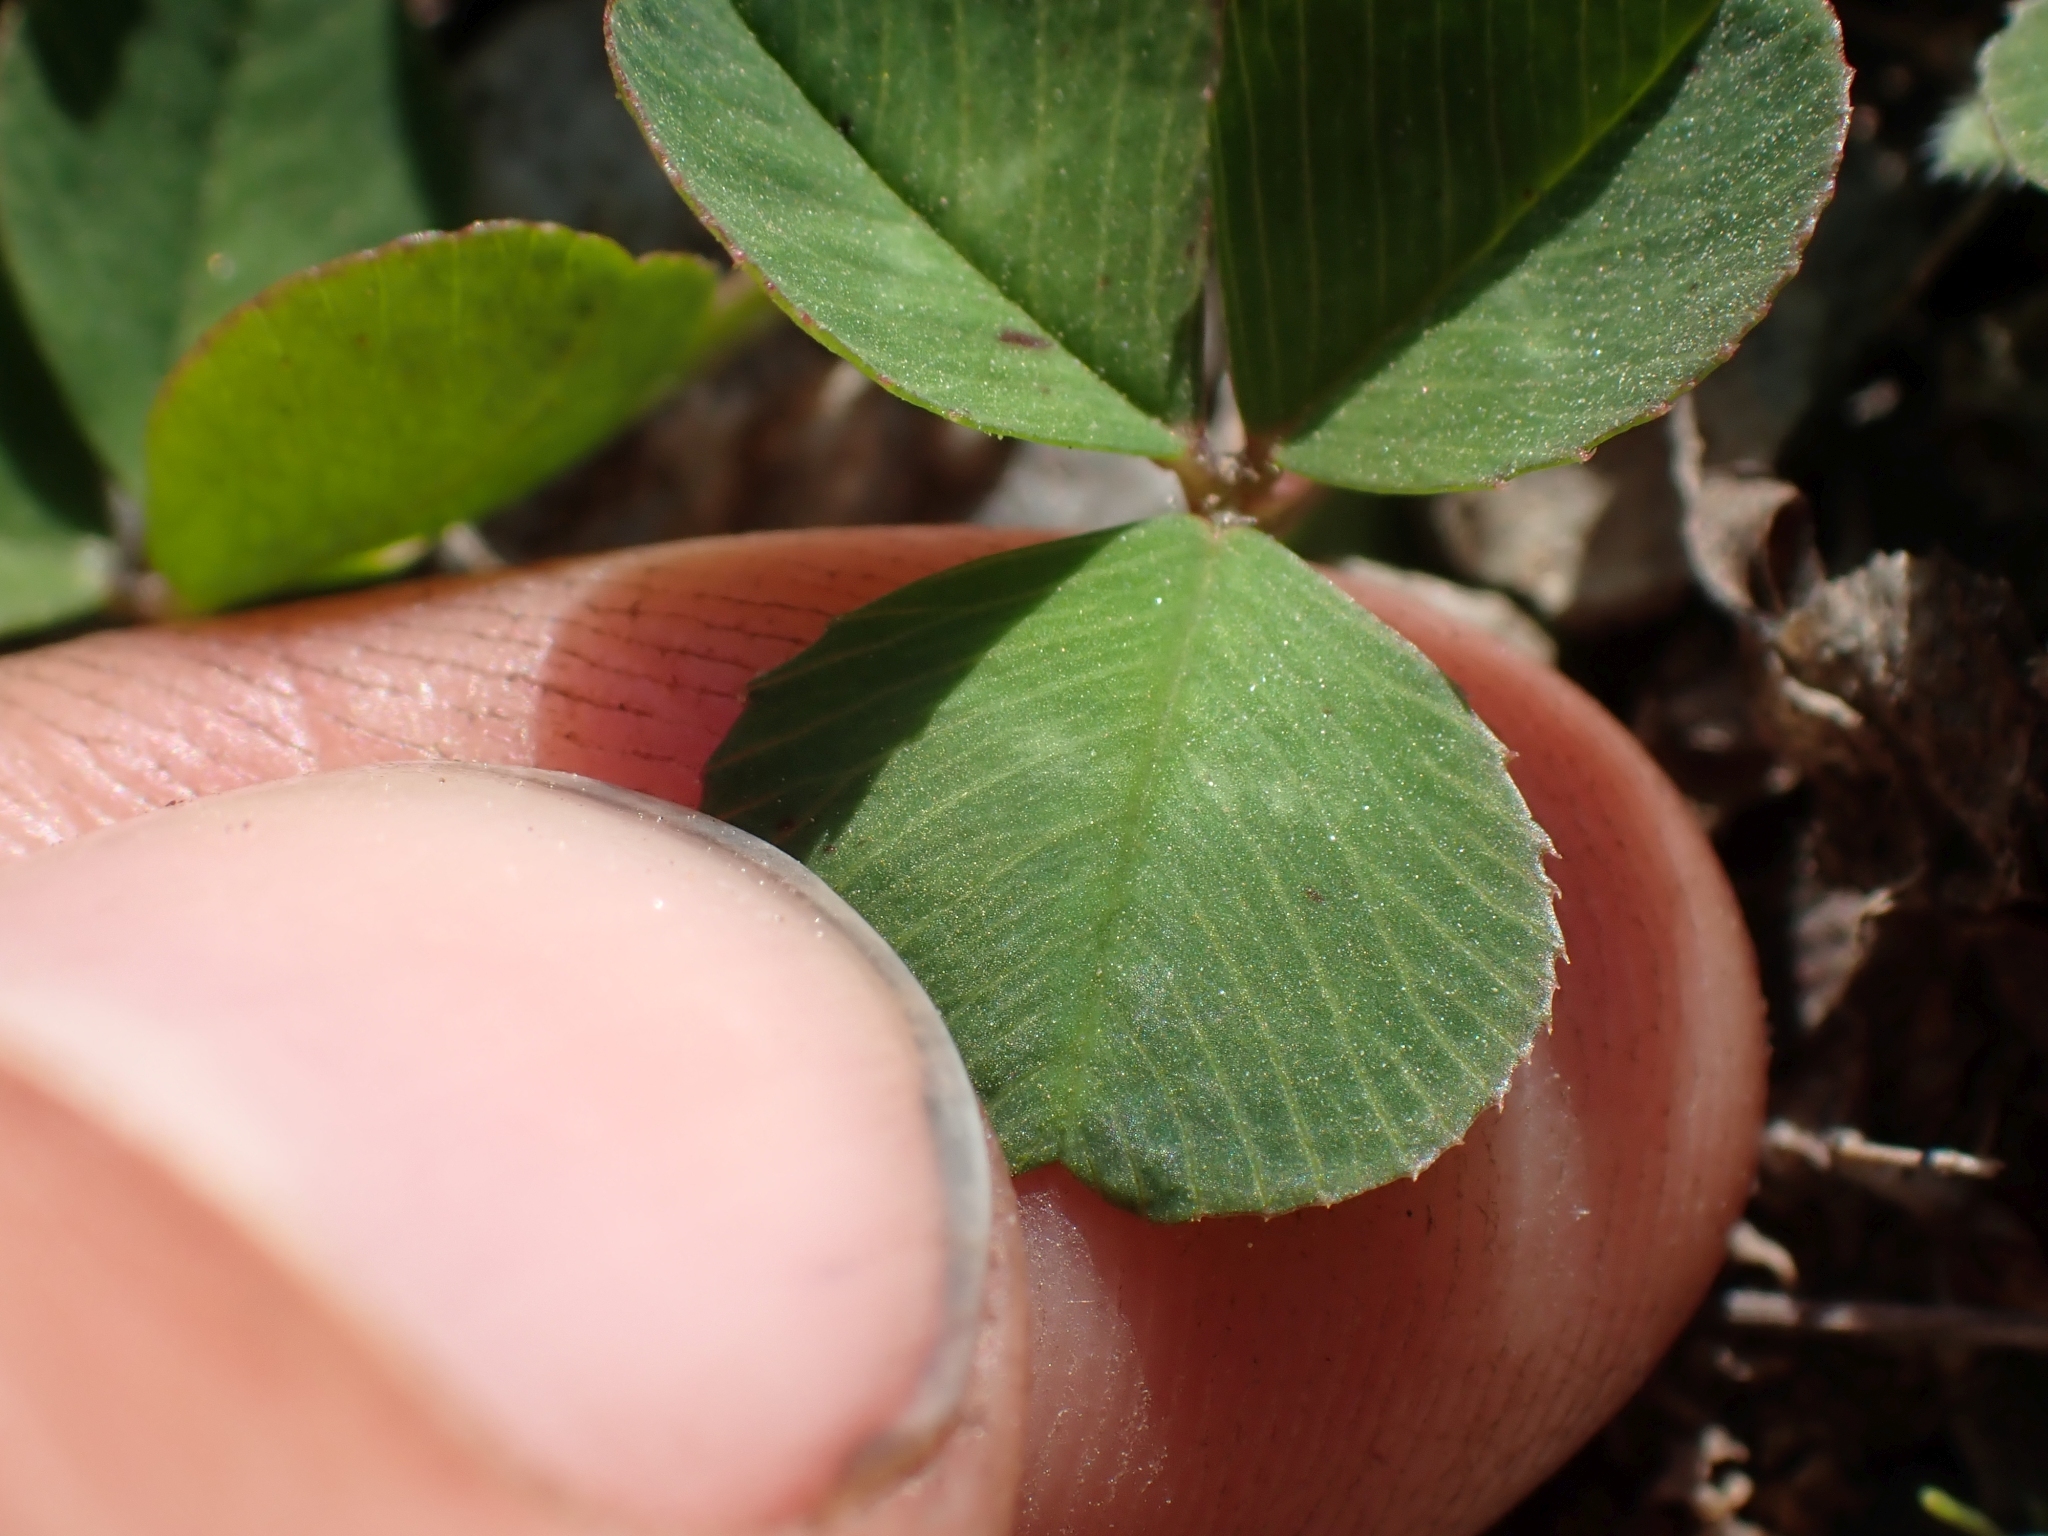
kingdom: Plantae
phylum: Tracheophyta
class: Magnoliopsida
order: Fabales
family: Fabaceae
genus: Trifolium
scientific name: Trifolium repens
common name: White clover
